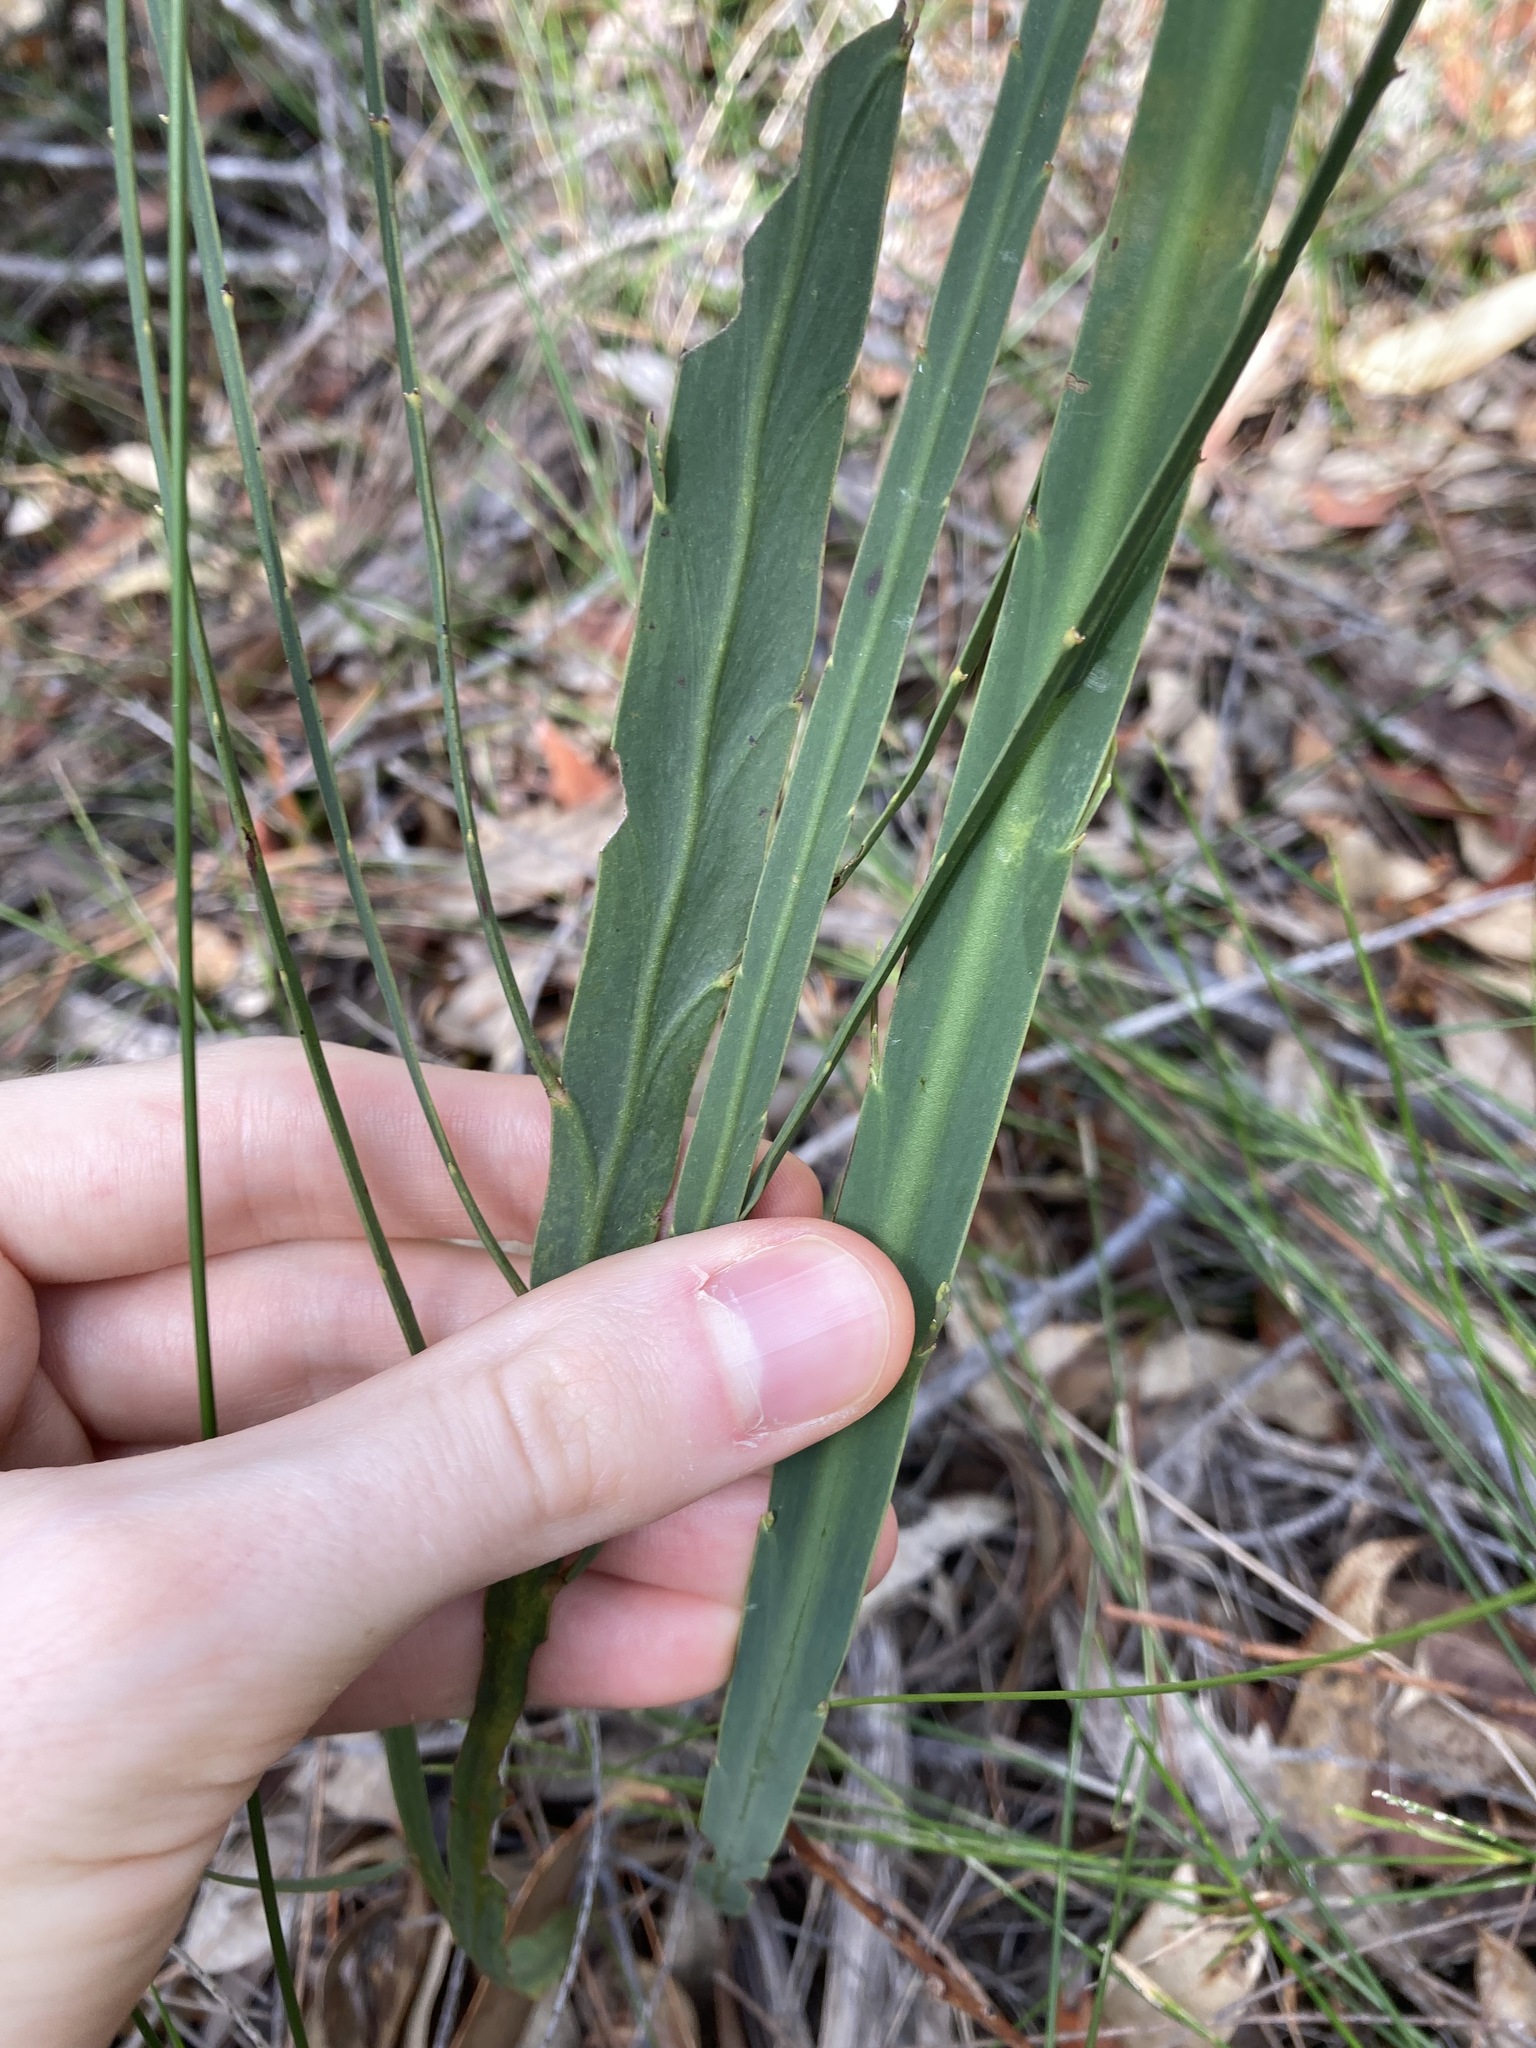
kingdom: Plantae
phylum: Tracheophyta
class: Magnoliopsida
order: Fabales
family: Fabaceae
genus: Bossiaea
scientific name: Bossiaea scolopendria
